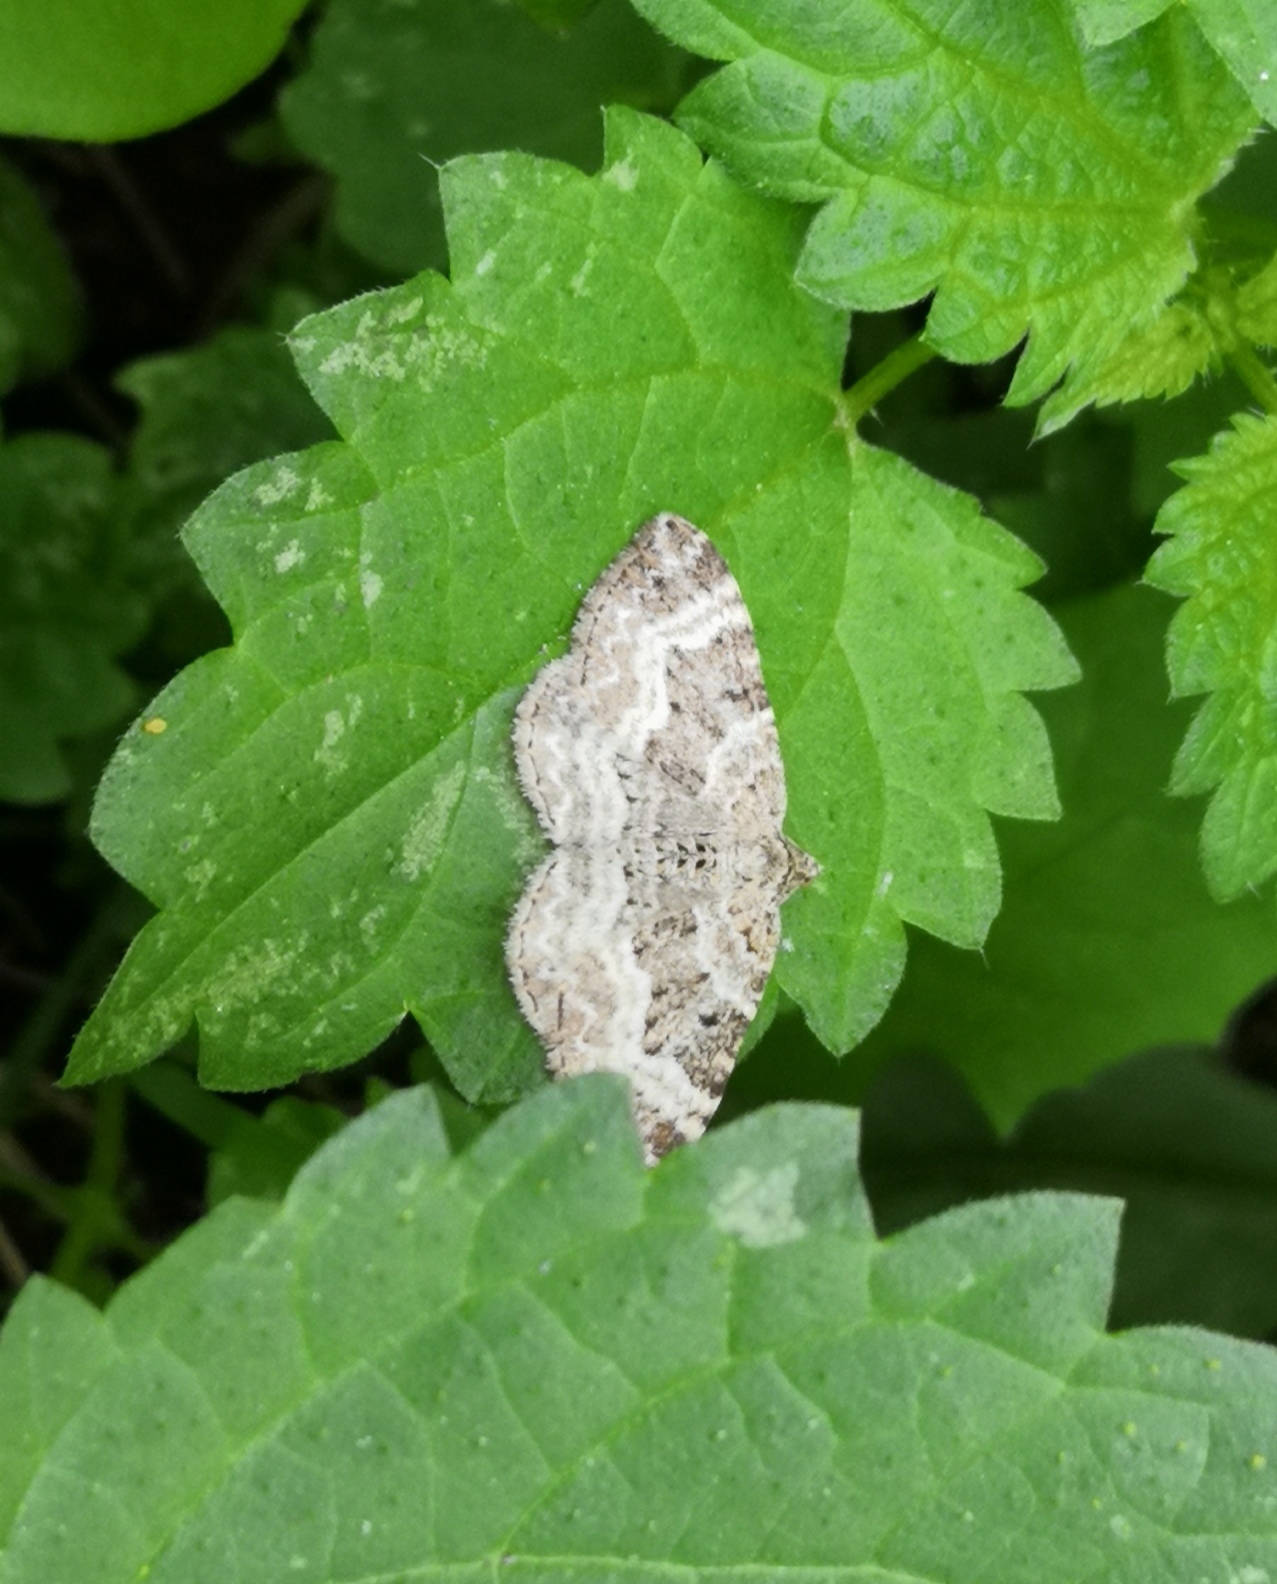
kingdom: Animalia
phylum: Arthropoda
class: Insecta
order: Lepidoptera
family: Geometridae
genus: Epirrhoe
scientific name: Epirrhoe alternata
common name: Common carpet
